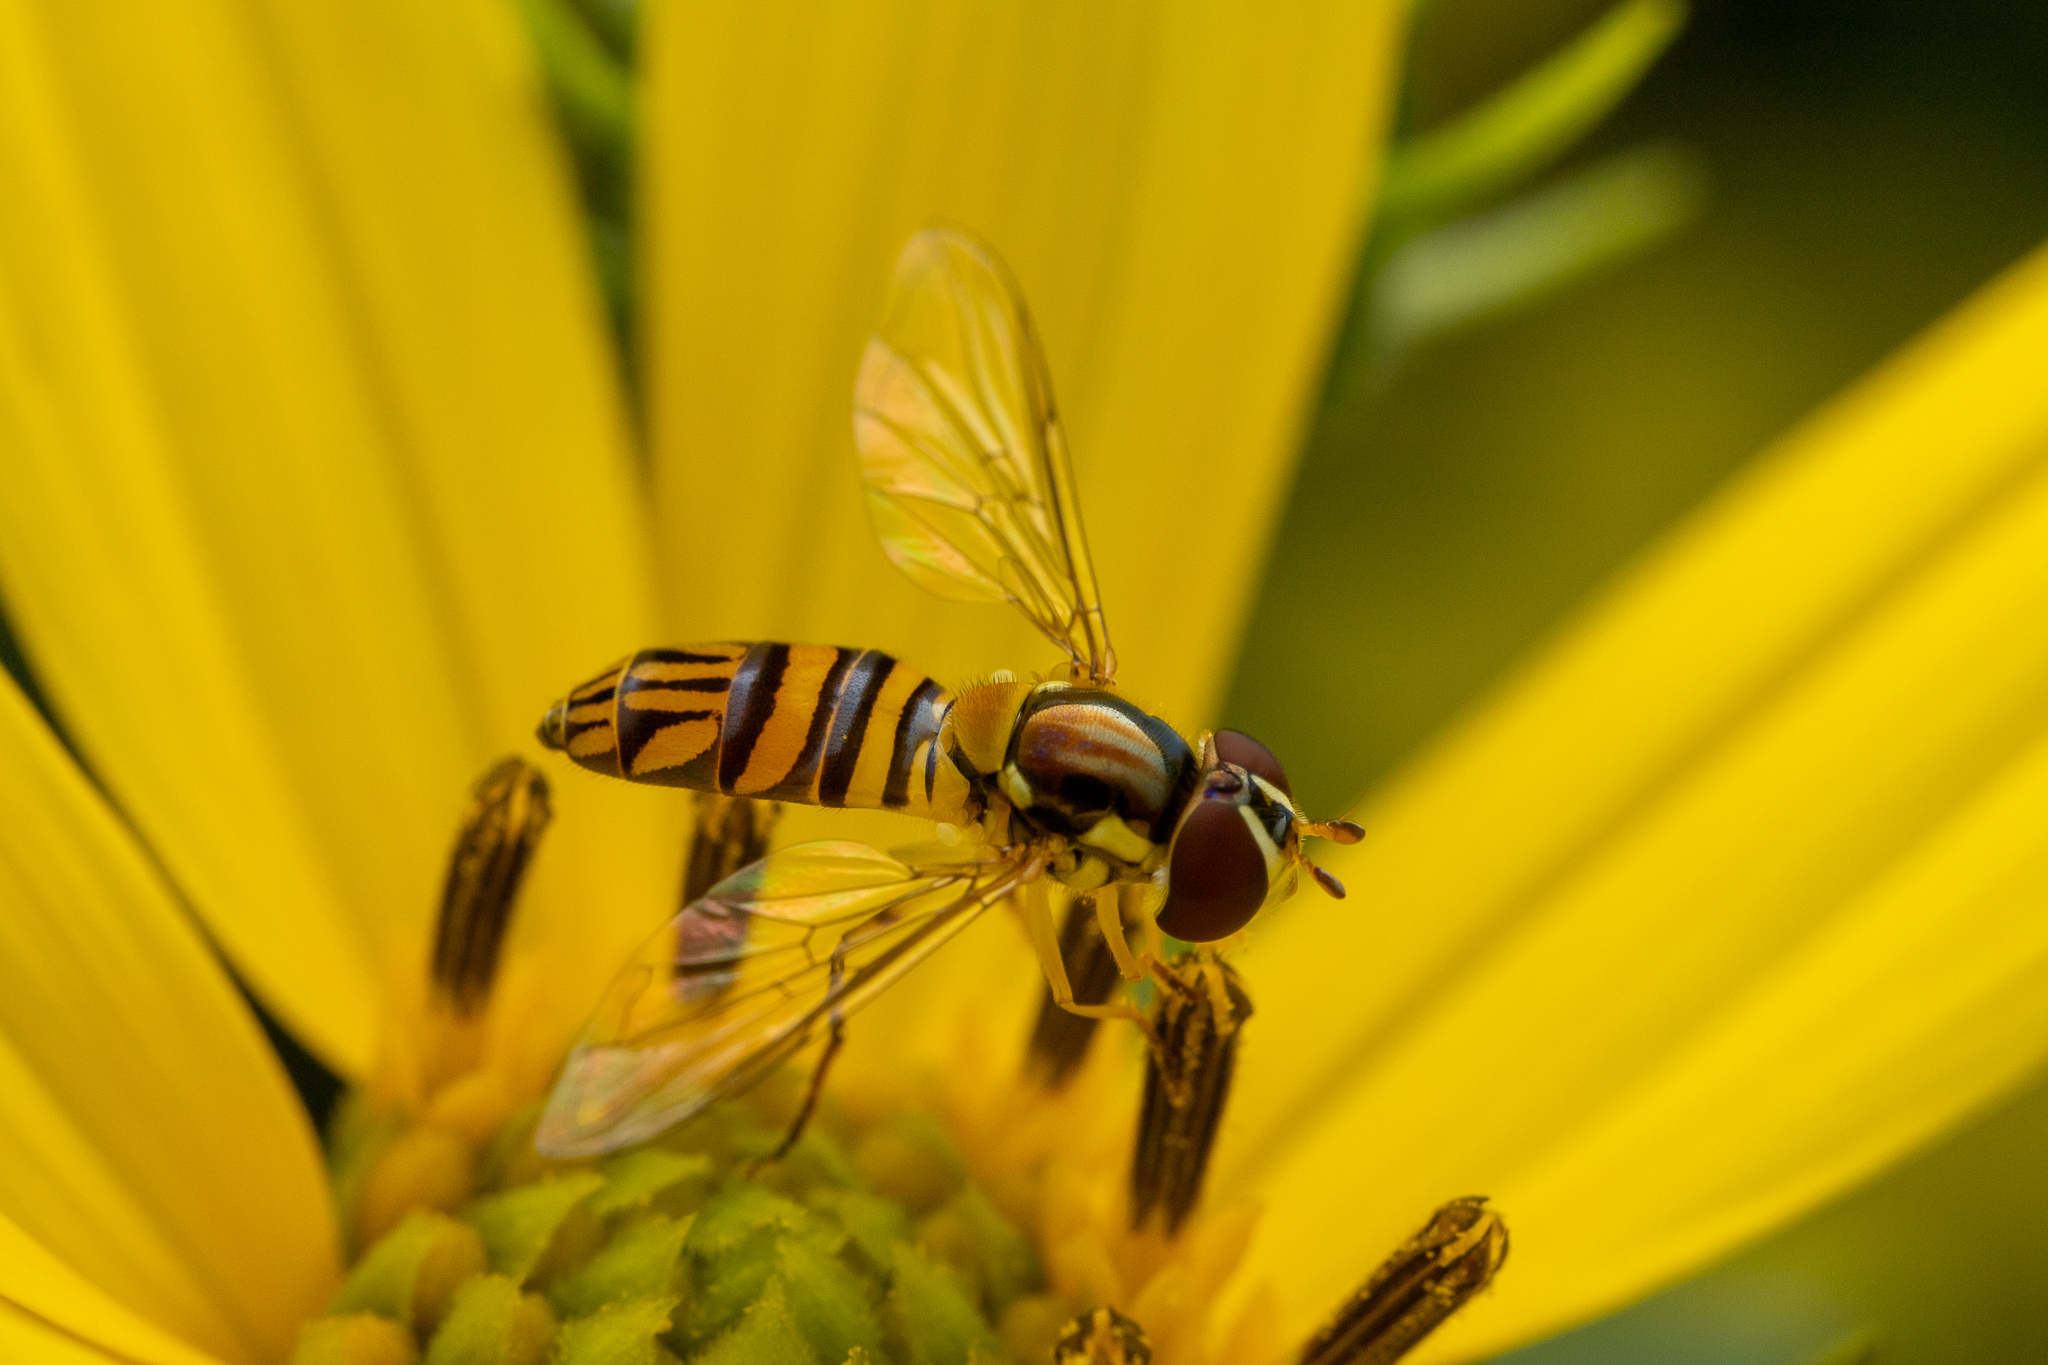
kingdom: Animalia
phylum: Arthropoda
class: Insecta
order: Diptera
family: Syrphidae
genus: Allograpta
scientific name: Allograpta obliqua
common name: Common oblique syrphid
